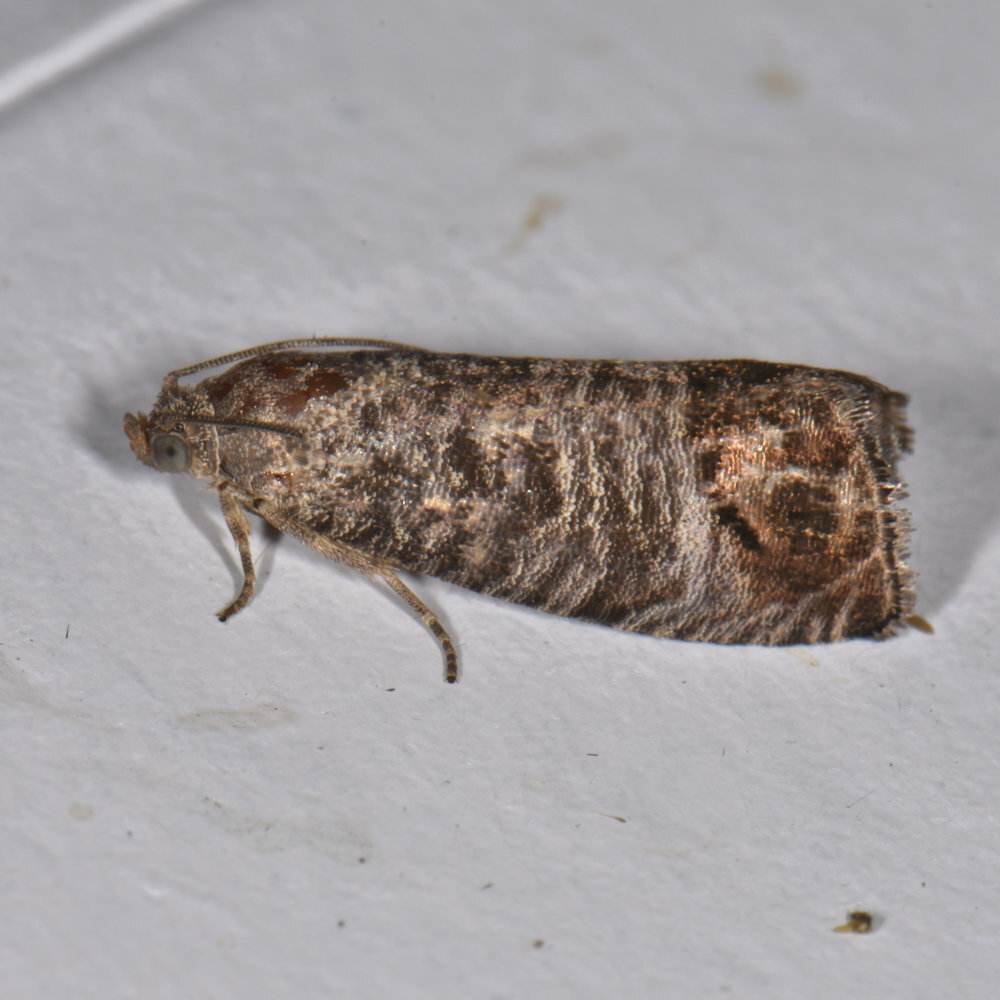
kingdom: Animalia
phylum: Arthropoda
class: Insecta
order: Lepidoptera
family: Tortricidae
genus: Cydia
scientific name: Cydia pomonella
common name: Codling moth
